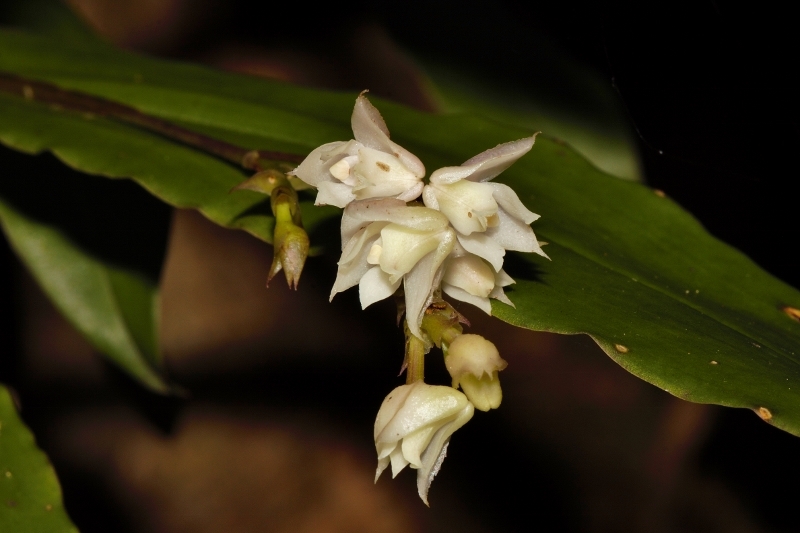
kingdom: Plantae
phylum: Tracheophyta
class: Liliopsida
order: Asparagales
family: Orchidaceae
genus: Polystachya
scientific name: Polystachya cultriformis
